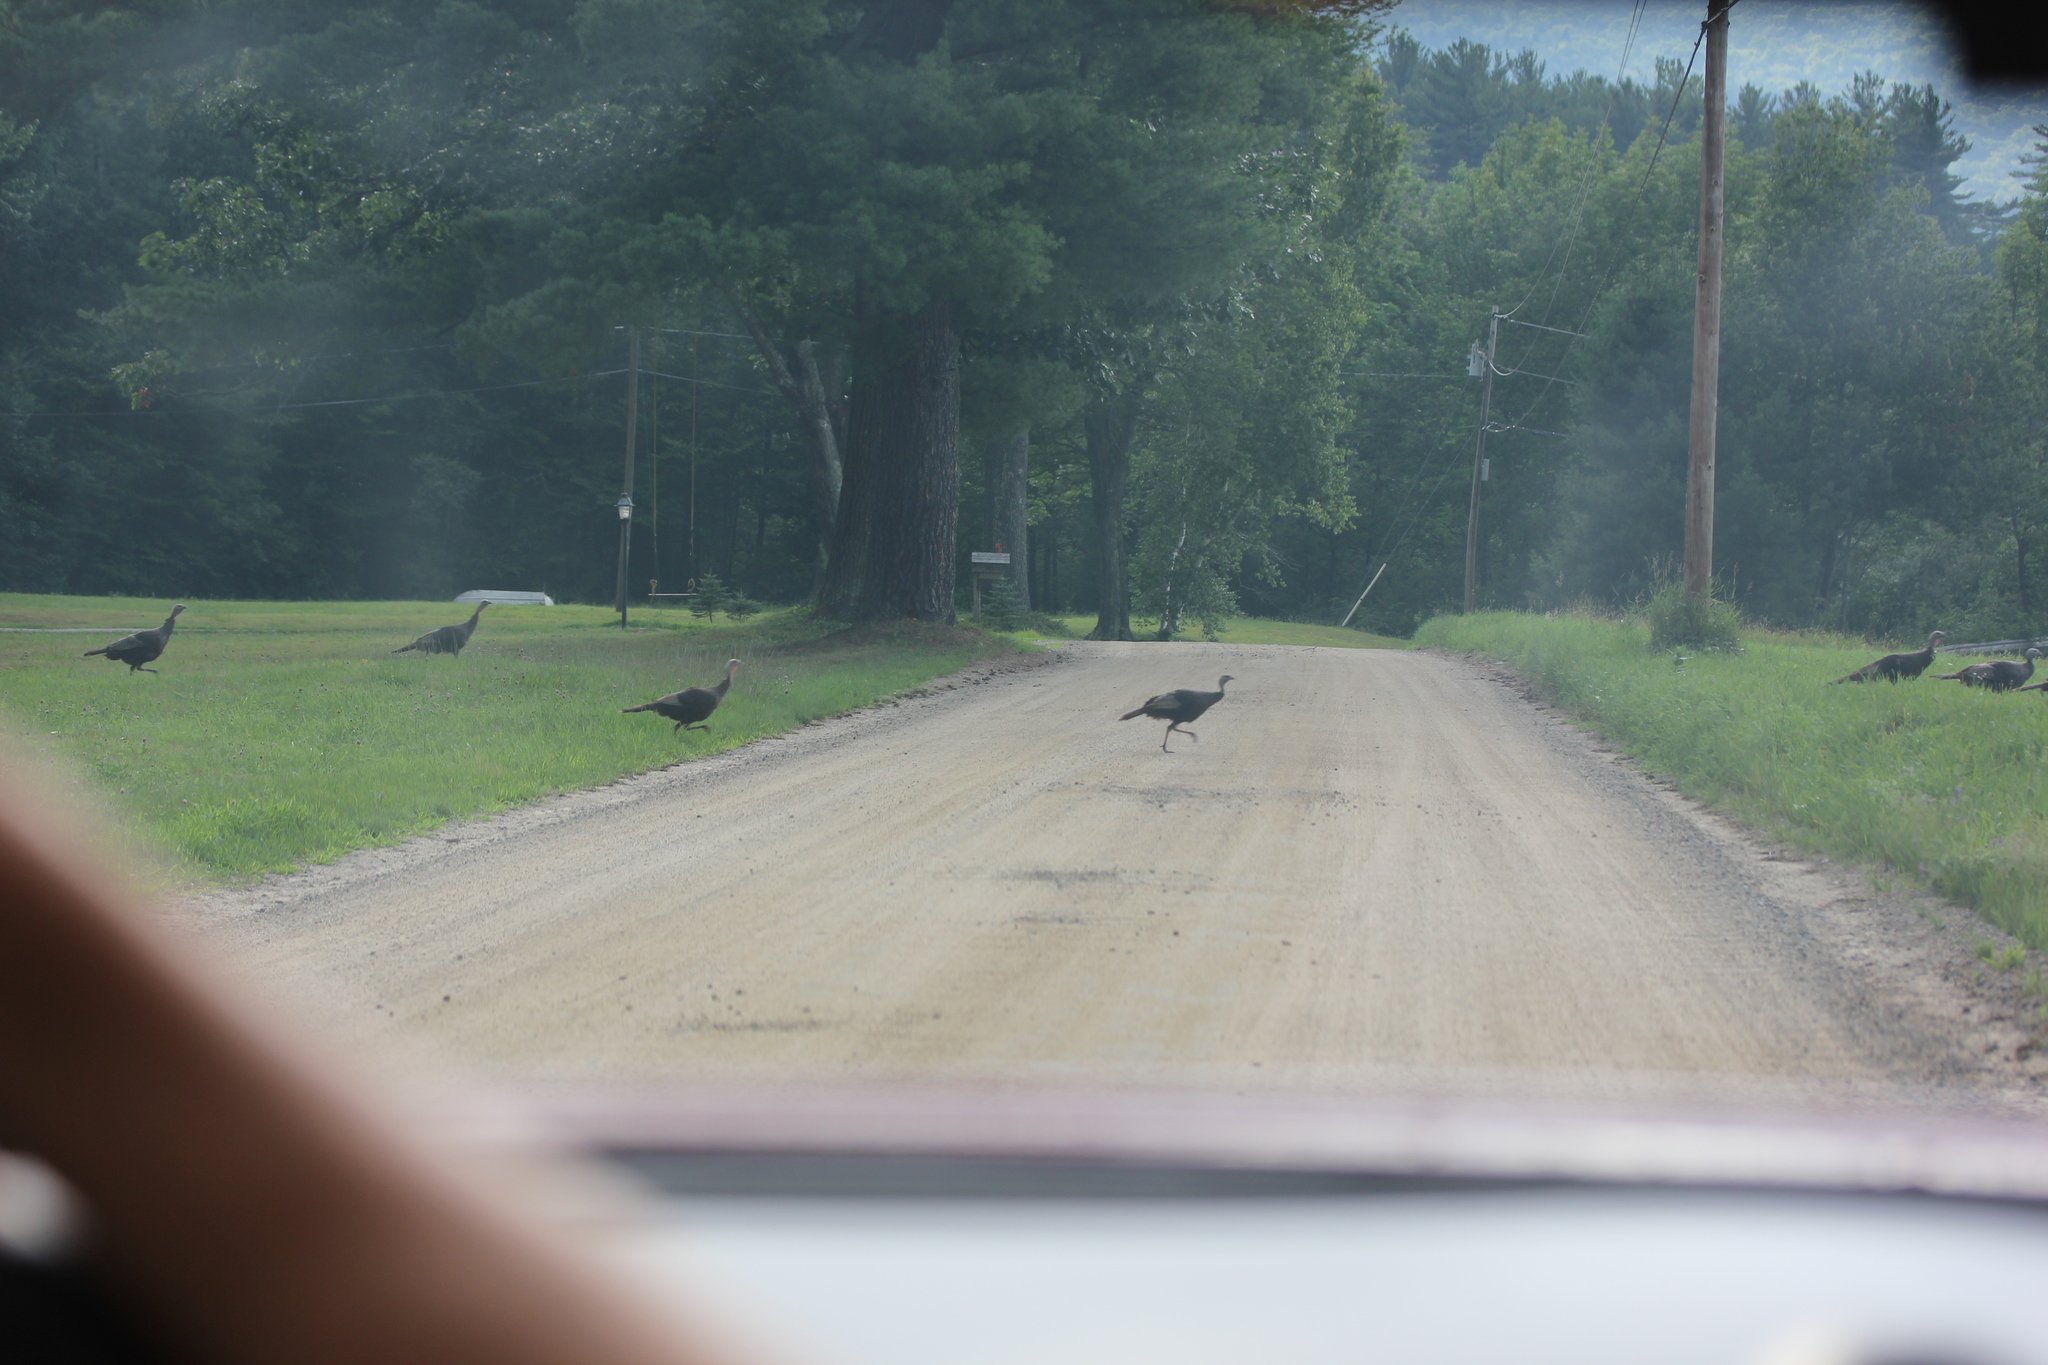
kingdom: Animalia
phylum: Chordata
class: Aves
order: Galliformes
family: Phasianidae
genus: Meleagris
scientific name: Meleagris gallopavo
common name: Wild turkey
